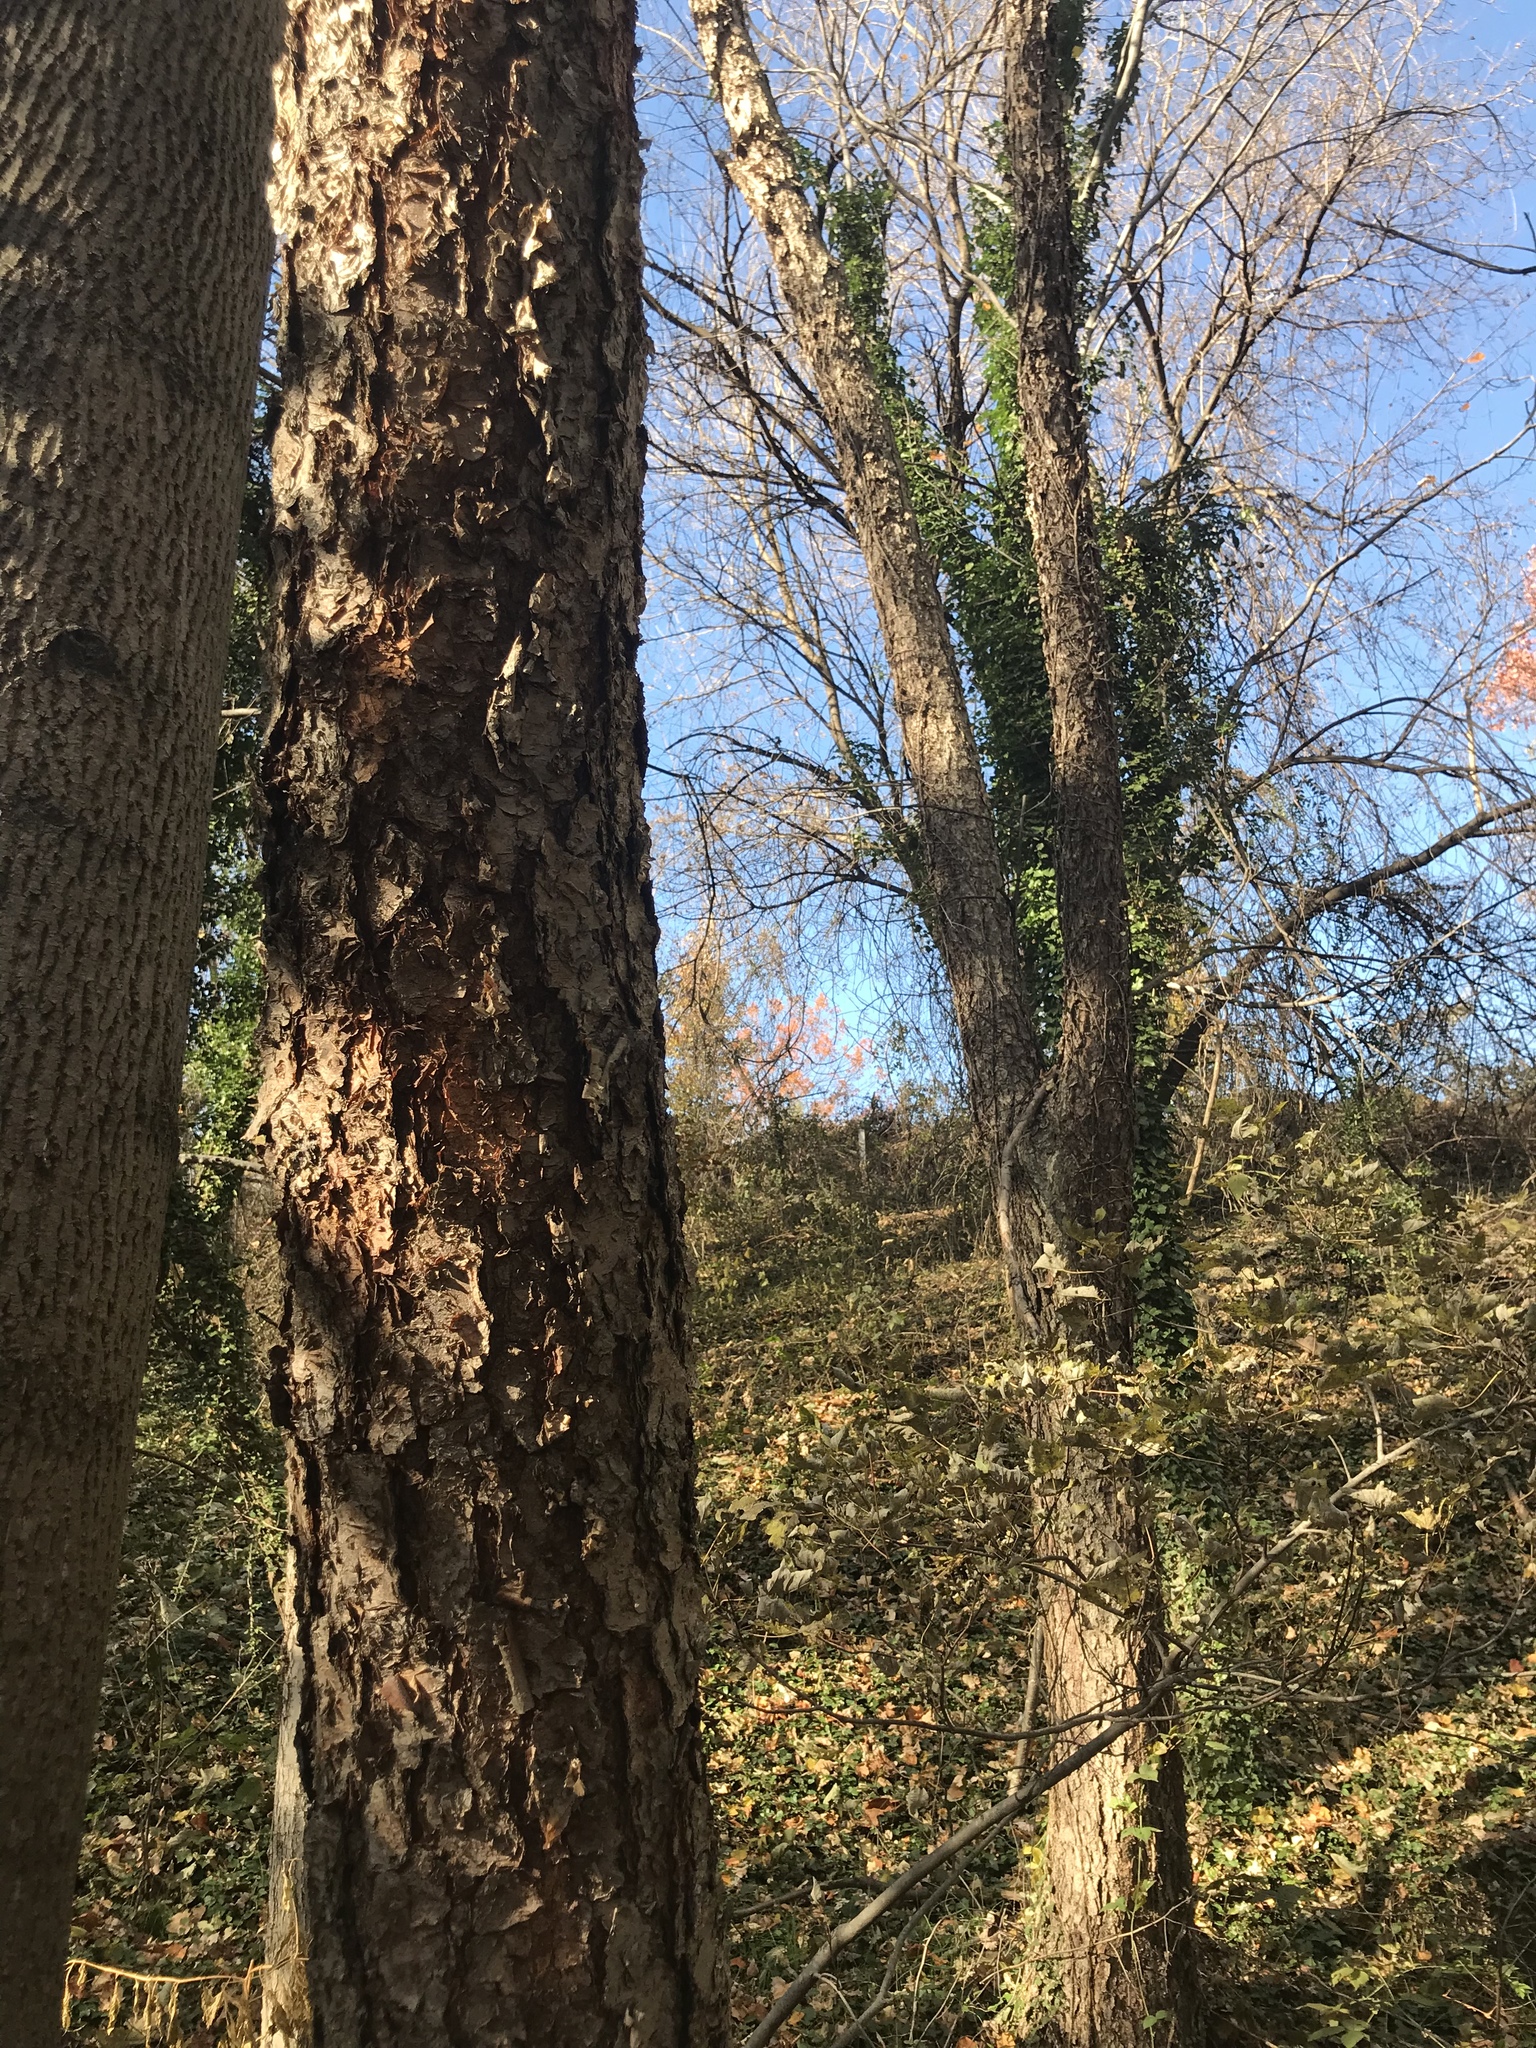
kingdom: Plantae
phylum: Tracheophyta
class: Magnoliopsida
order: Fagales
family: Betulaceae
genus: Betula
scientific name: Betula nigra
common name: Black birch
